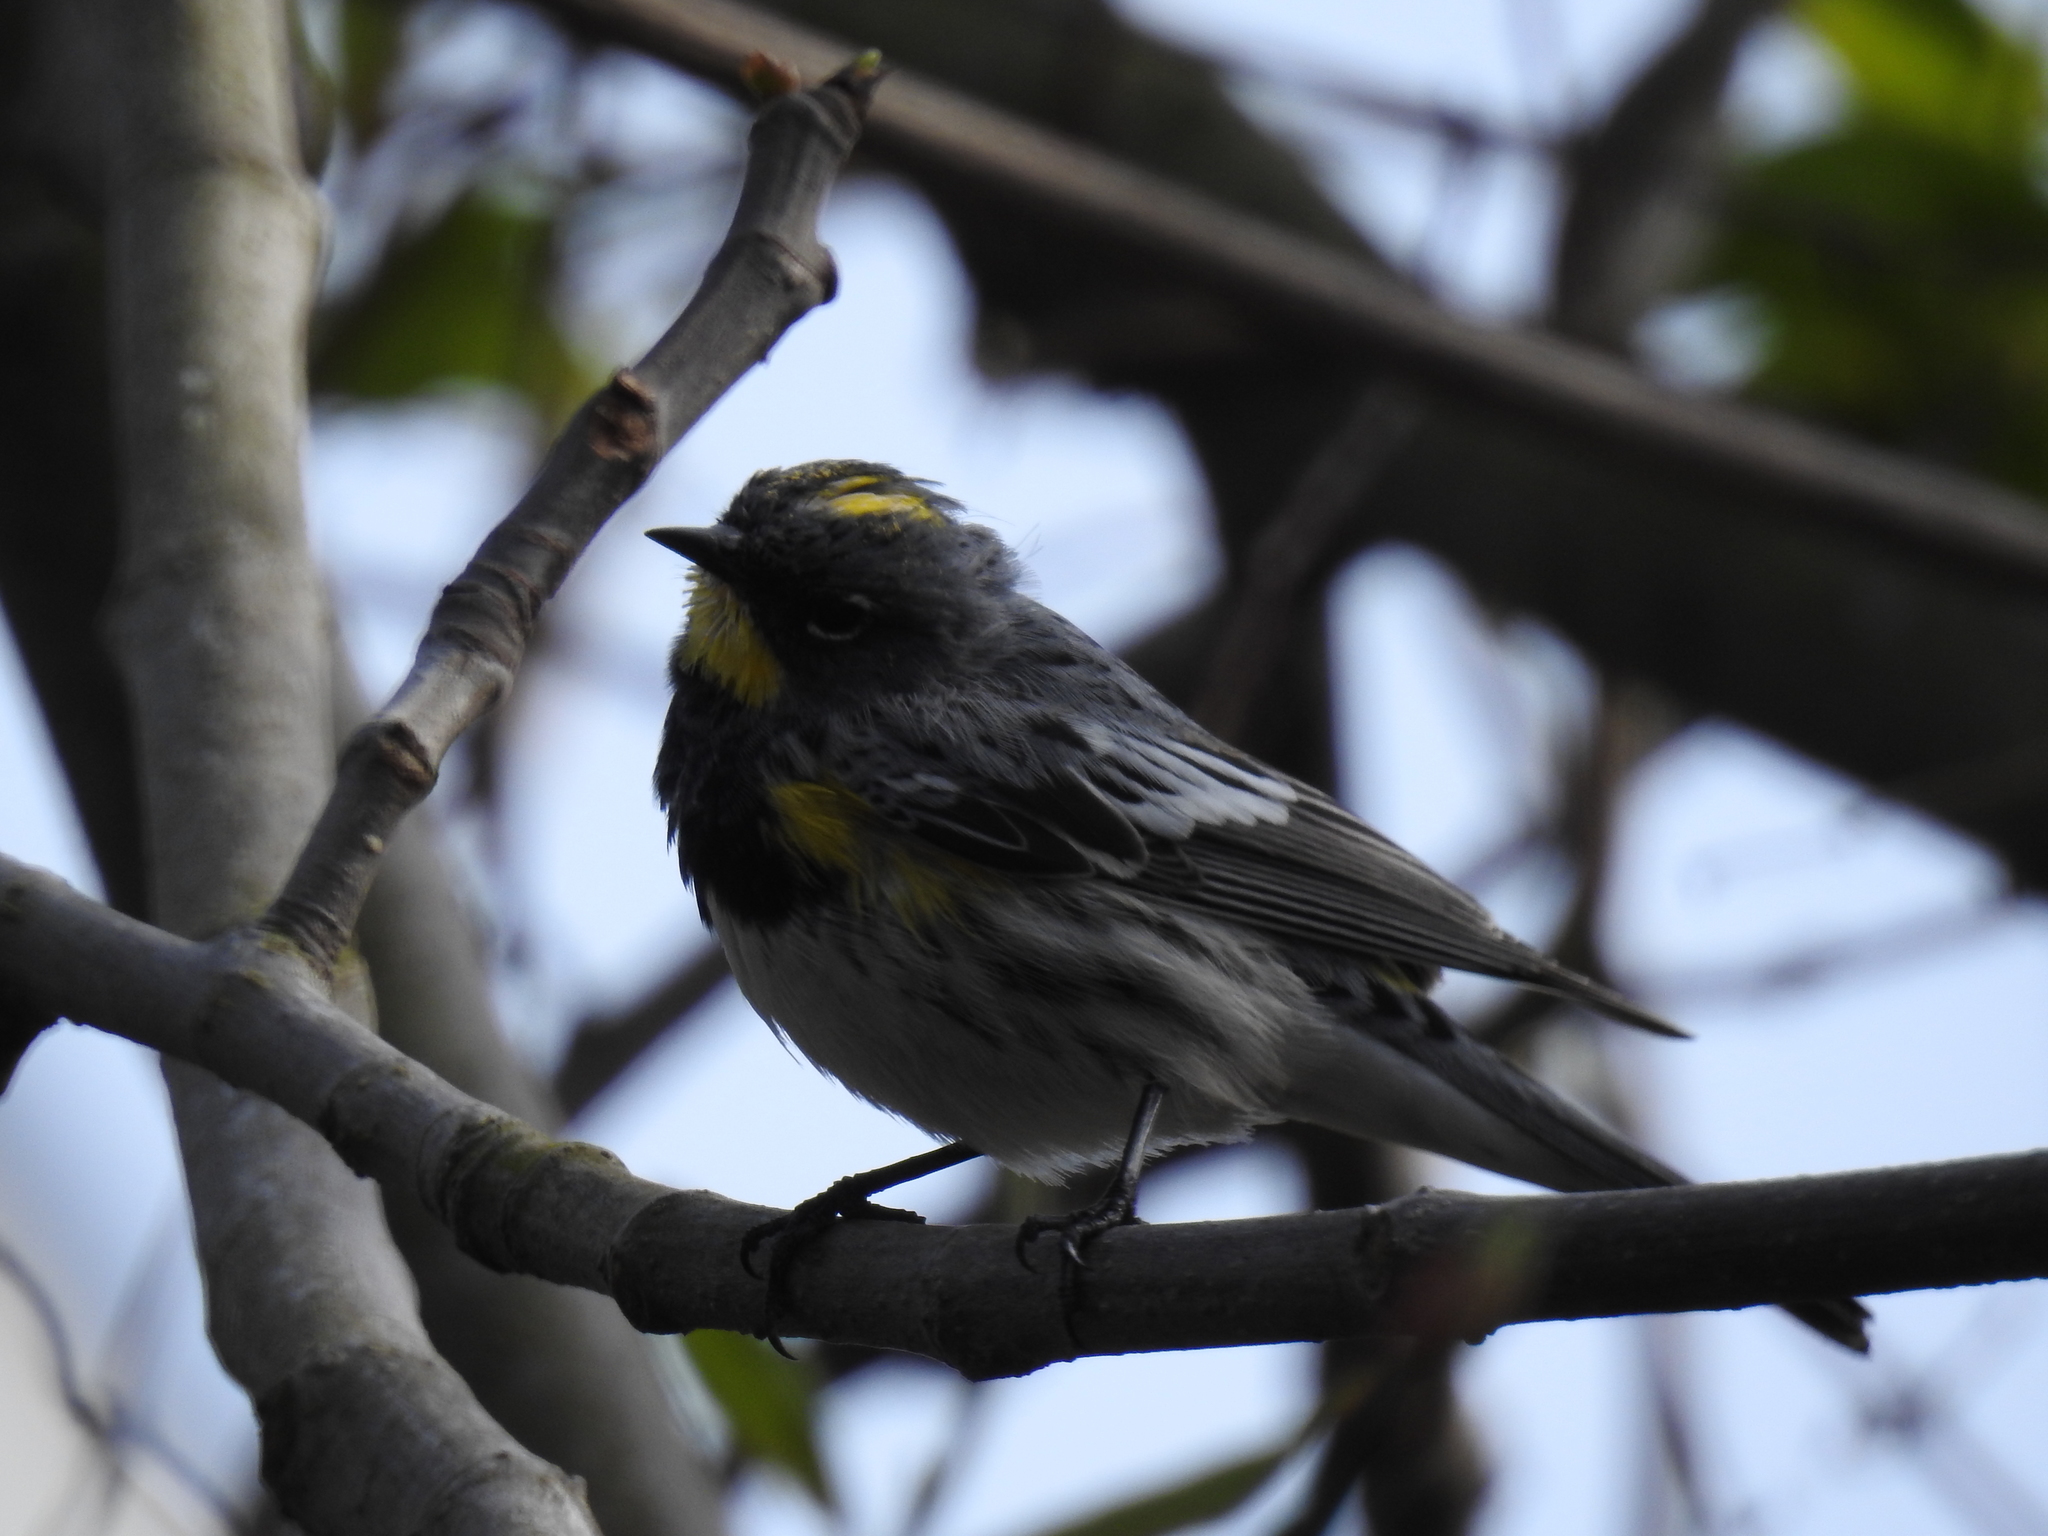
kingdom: Animalia
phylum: Chordata
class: Aves
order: Passeriformes
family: Parulidae
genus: Setophaga
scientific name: Setophaga coronata
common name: Myrtle warbler
